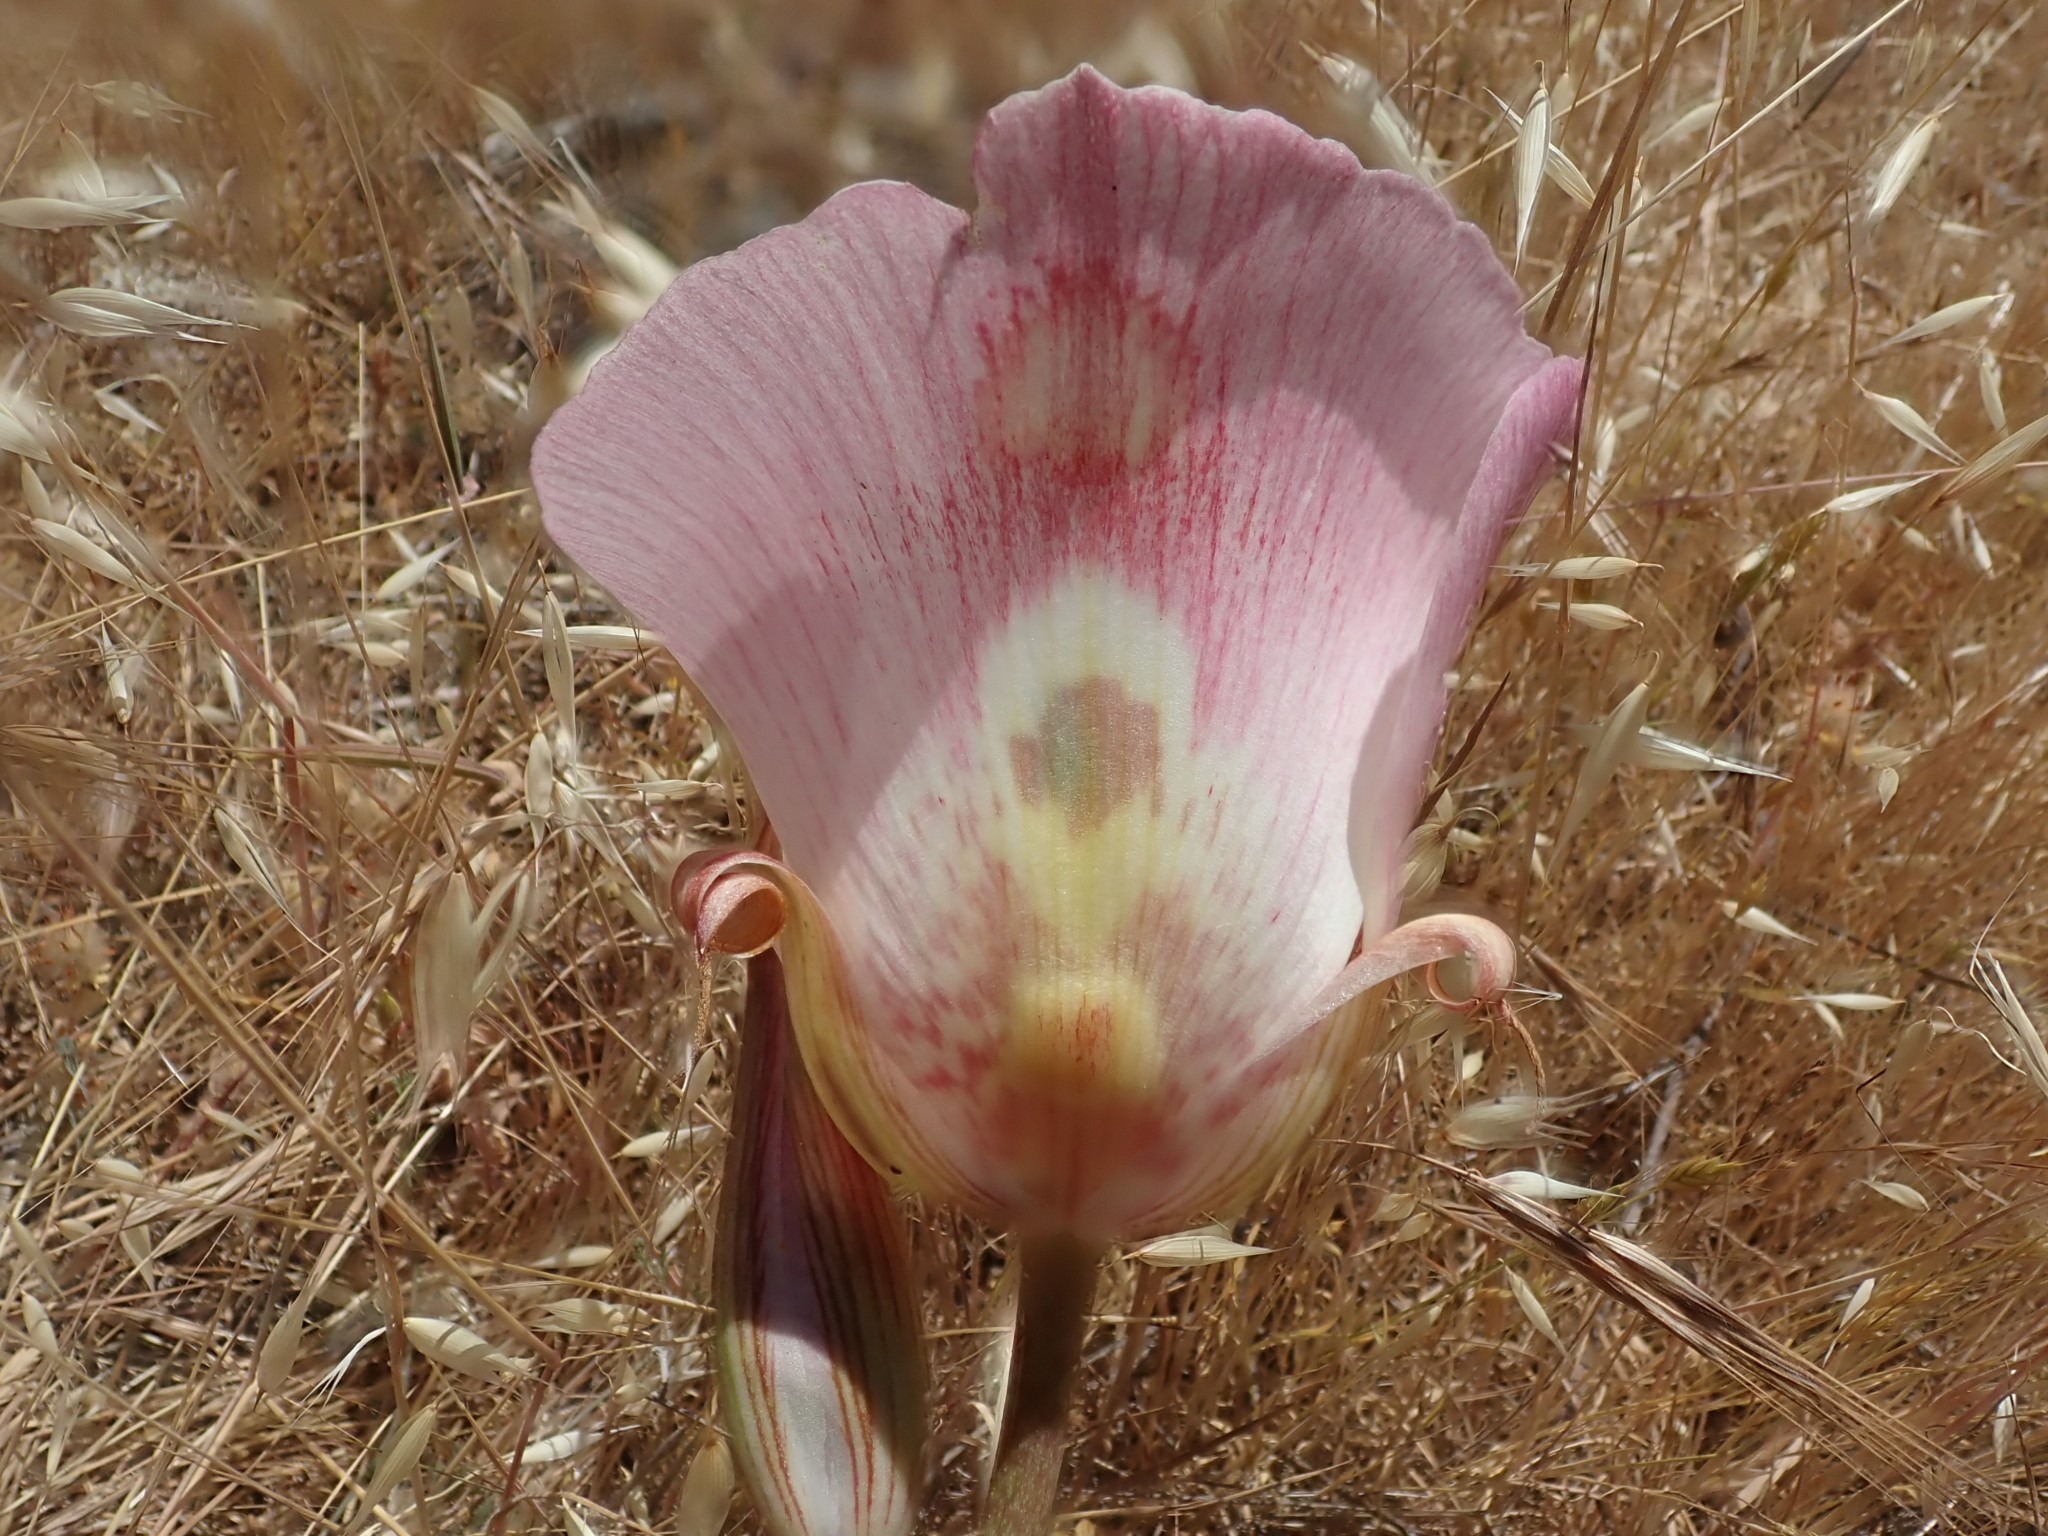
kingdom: Plantae
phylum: Tracheophyta
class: Liliopsida
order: Liliales
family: Liliaceae
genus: Calochortus
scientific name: Calochortus venustus
